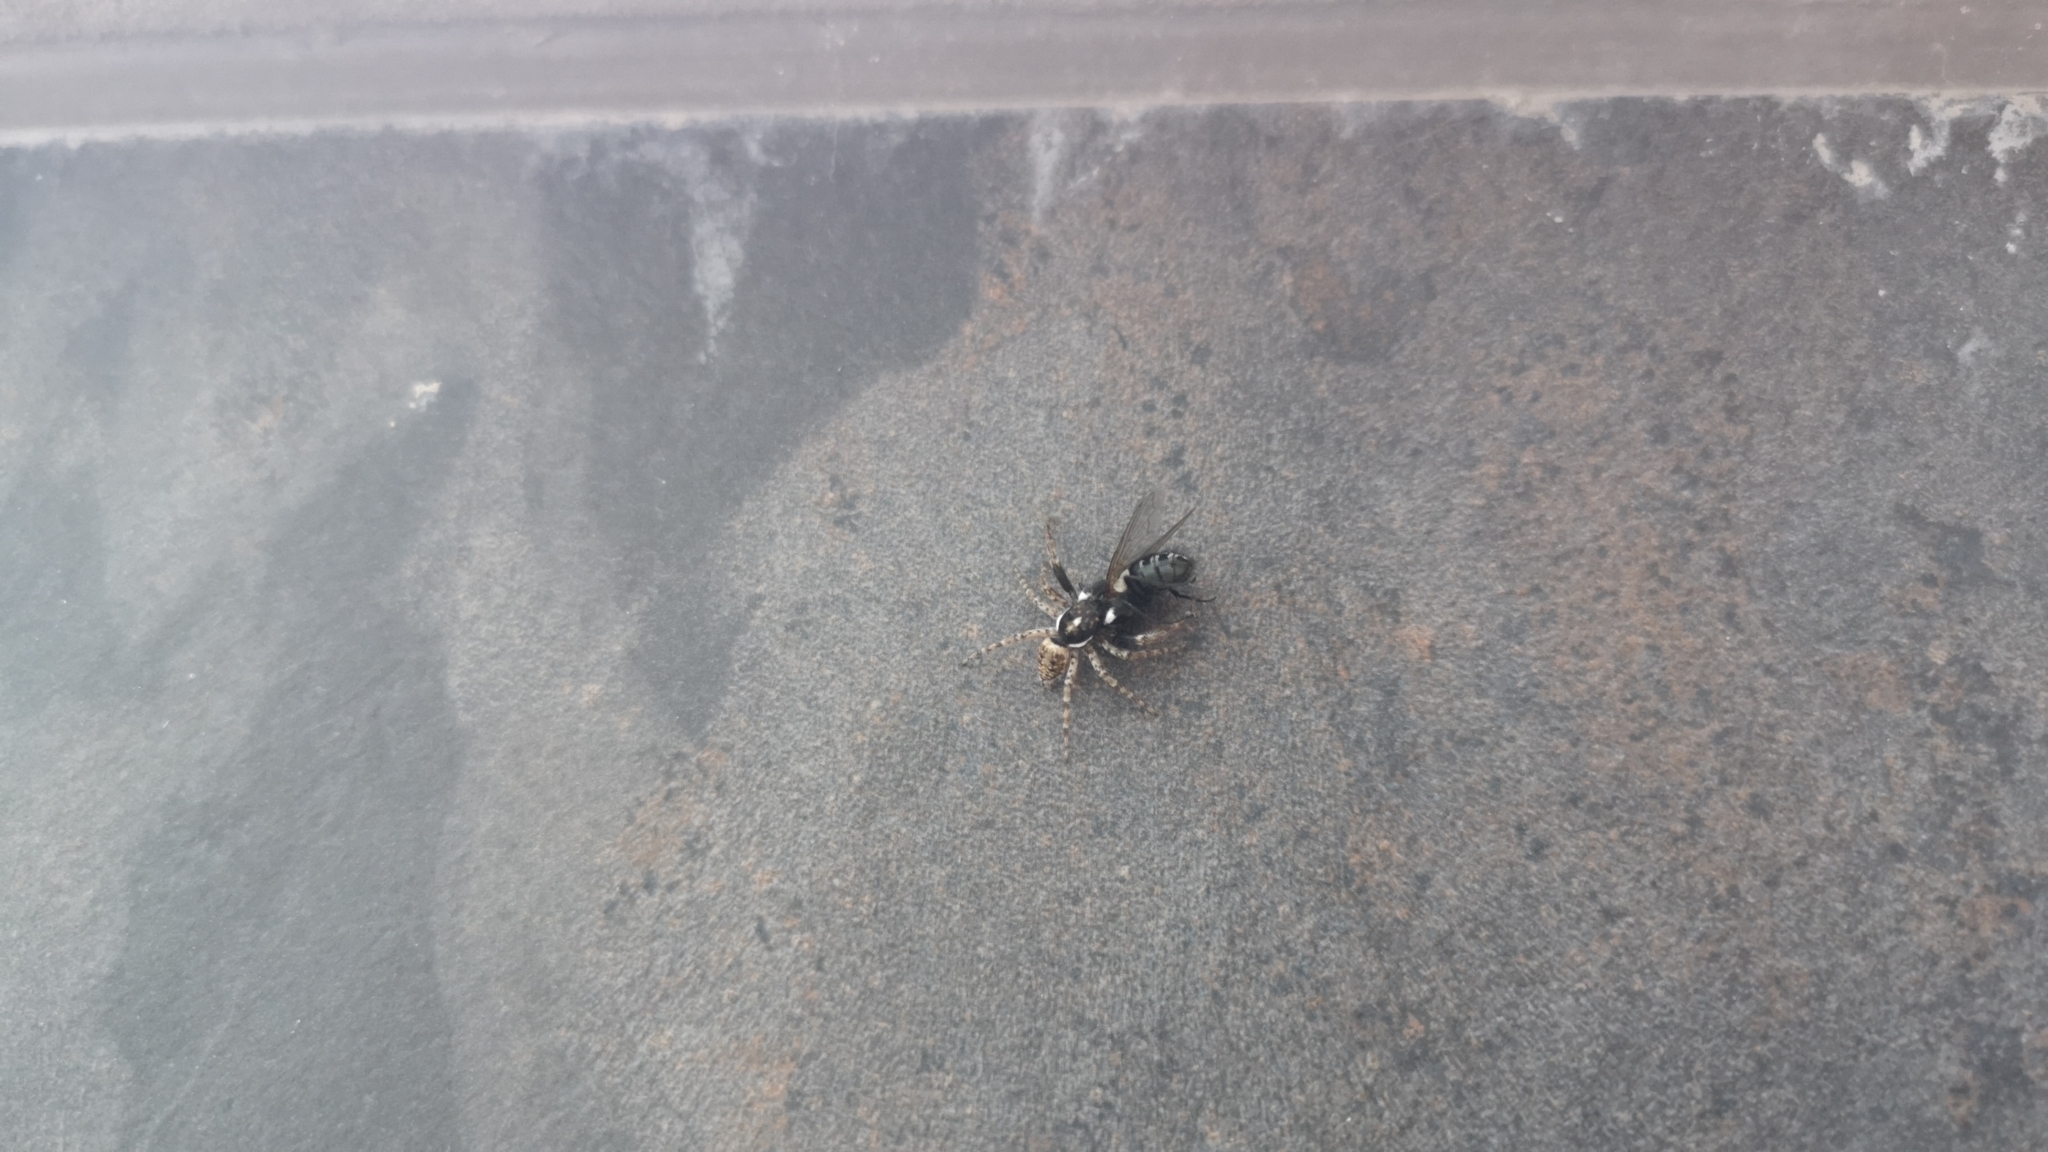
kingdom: Animalia
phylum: Arthropoda
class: Arachnida
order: Araneae
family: Salticidae
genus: Menemerus
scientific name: Menemerus semilimbatus
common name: Jumping spider
